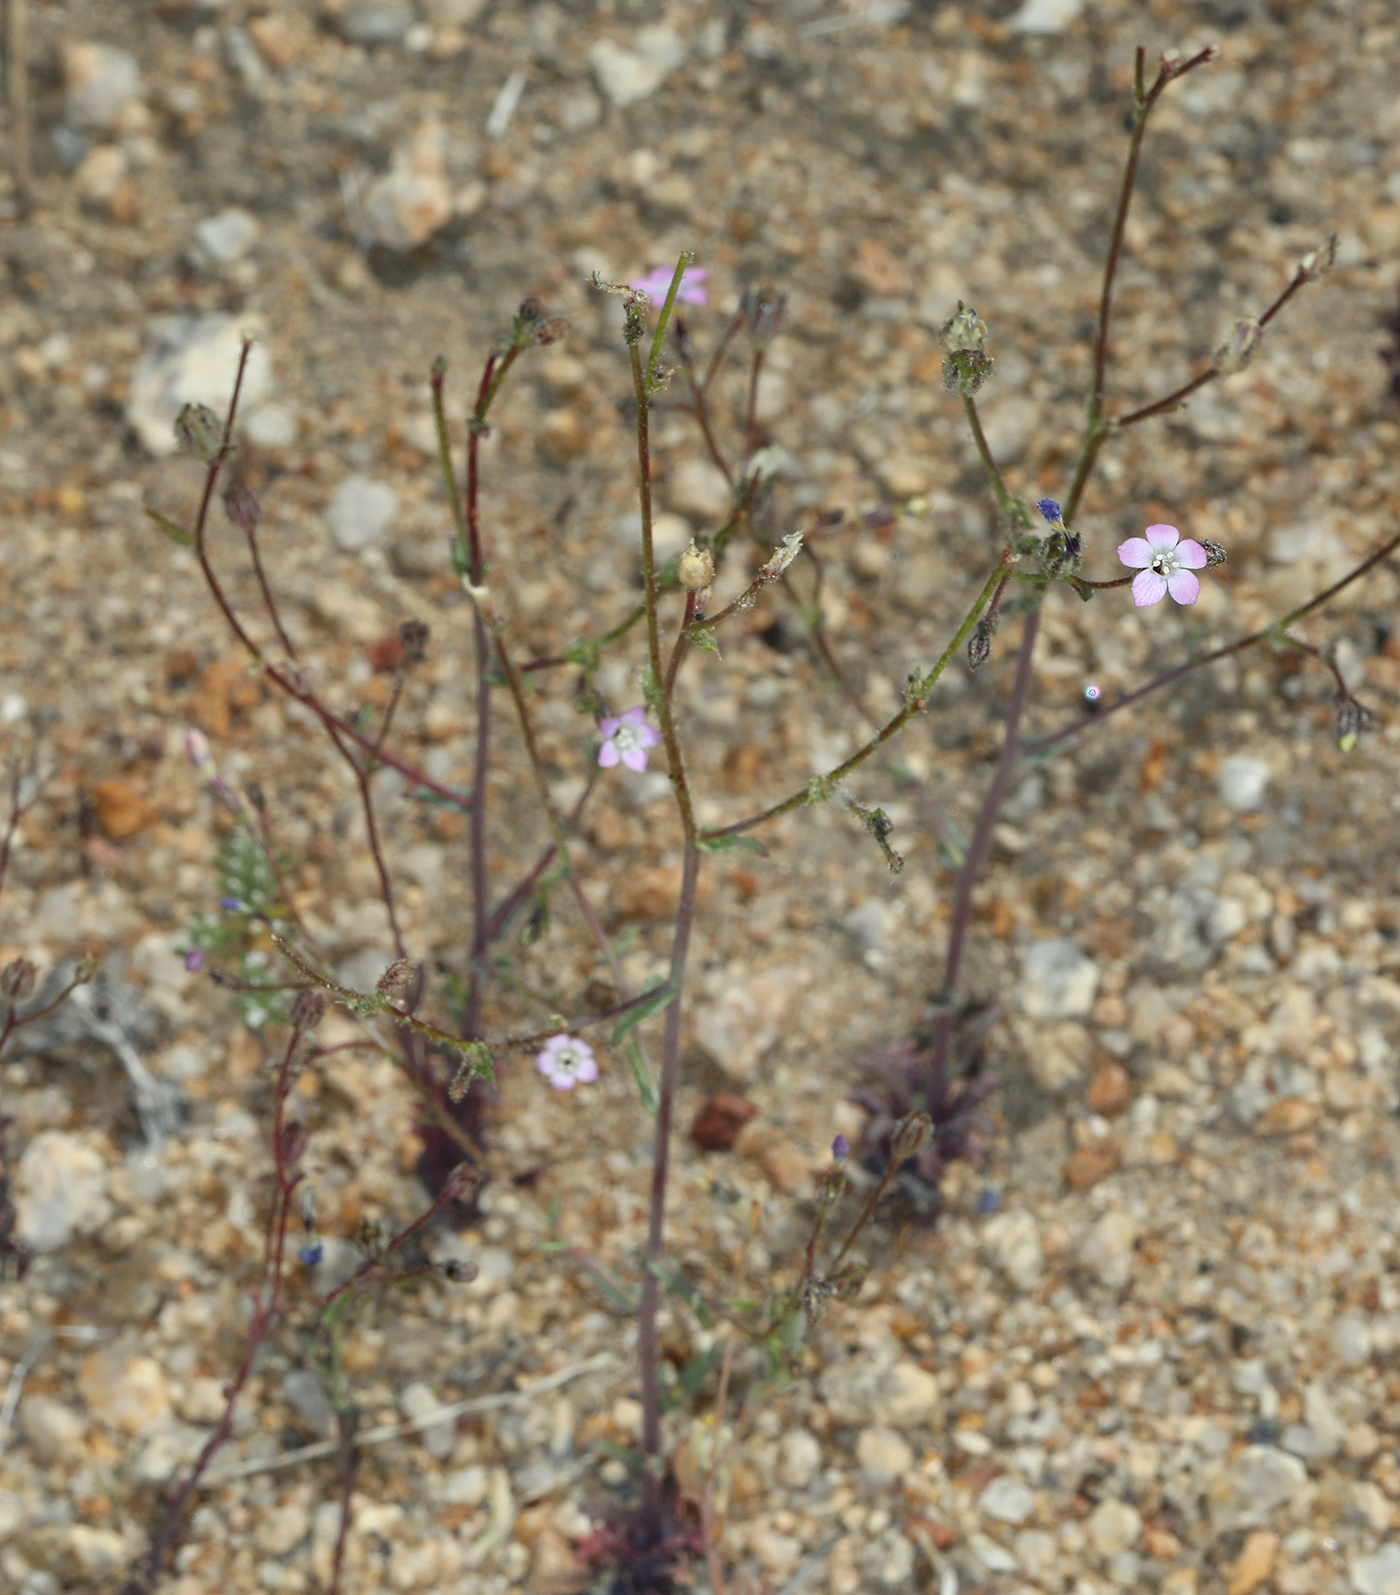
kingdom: Plantae
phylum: Tracheophyta
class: Magnoliopsida
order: Ericales
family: Polemoniaceae
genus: Gilia
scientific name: Gilia sinuata
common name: Rosy gilia
